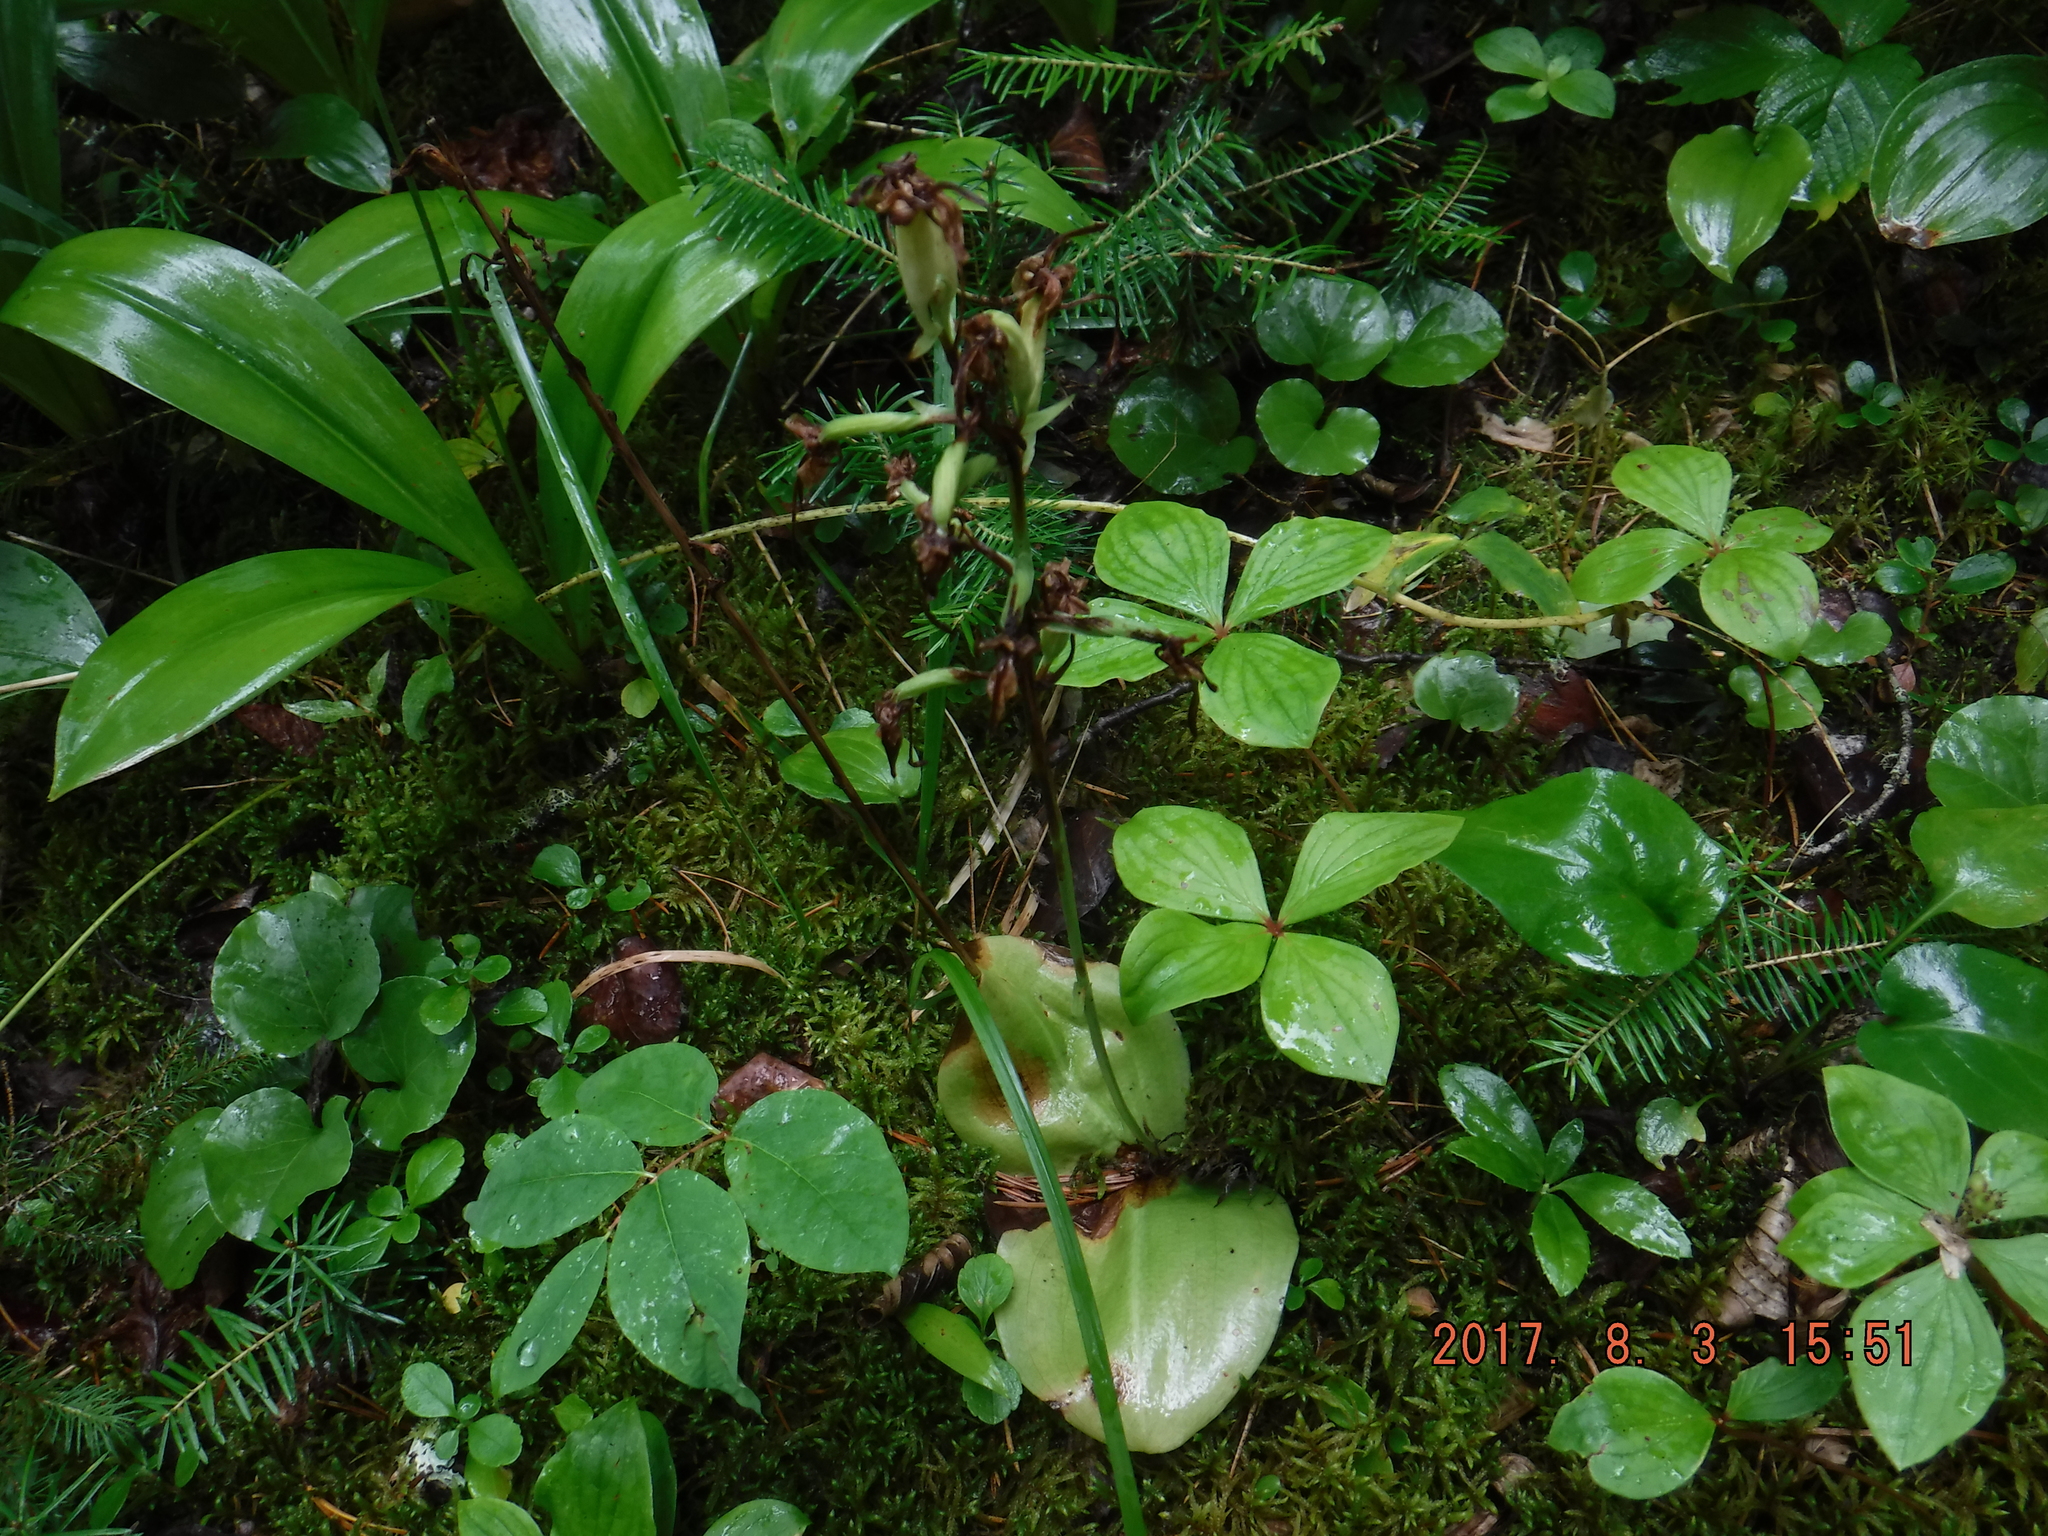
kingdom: Plantae
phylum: Tracheophyta
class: Liliopsida
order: Asparagales
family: Orchidaceae
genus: Platanthera
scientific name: Platanthera orbiculata
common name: Large round-leaved orchid
